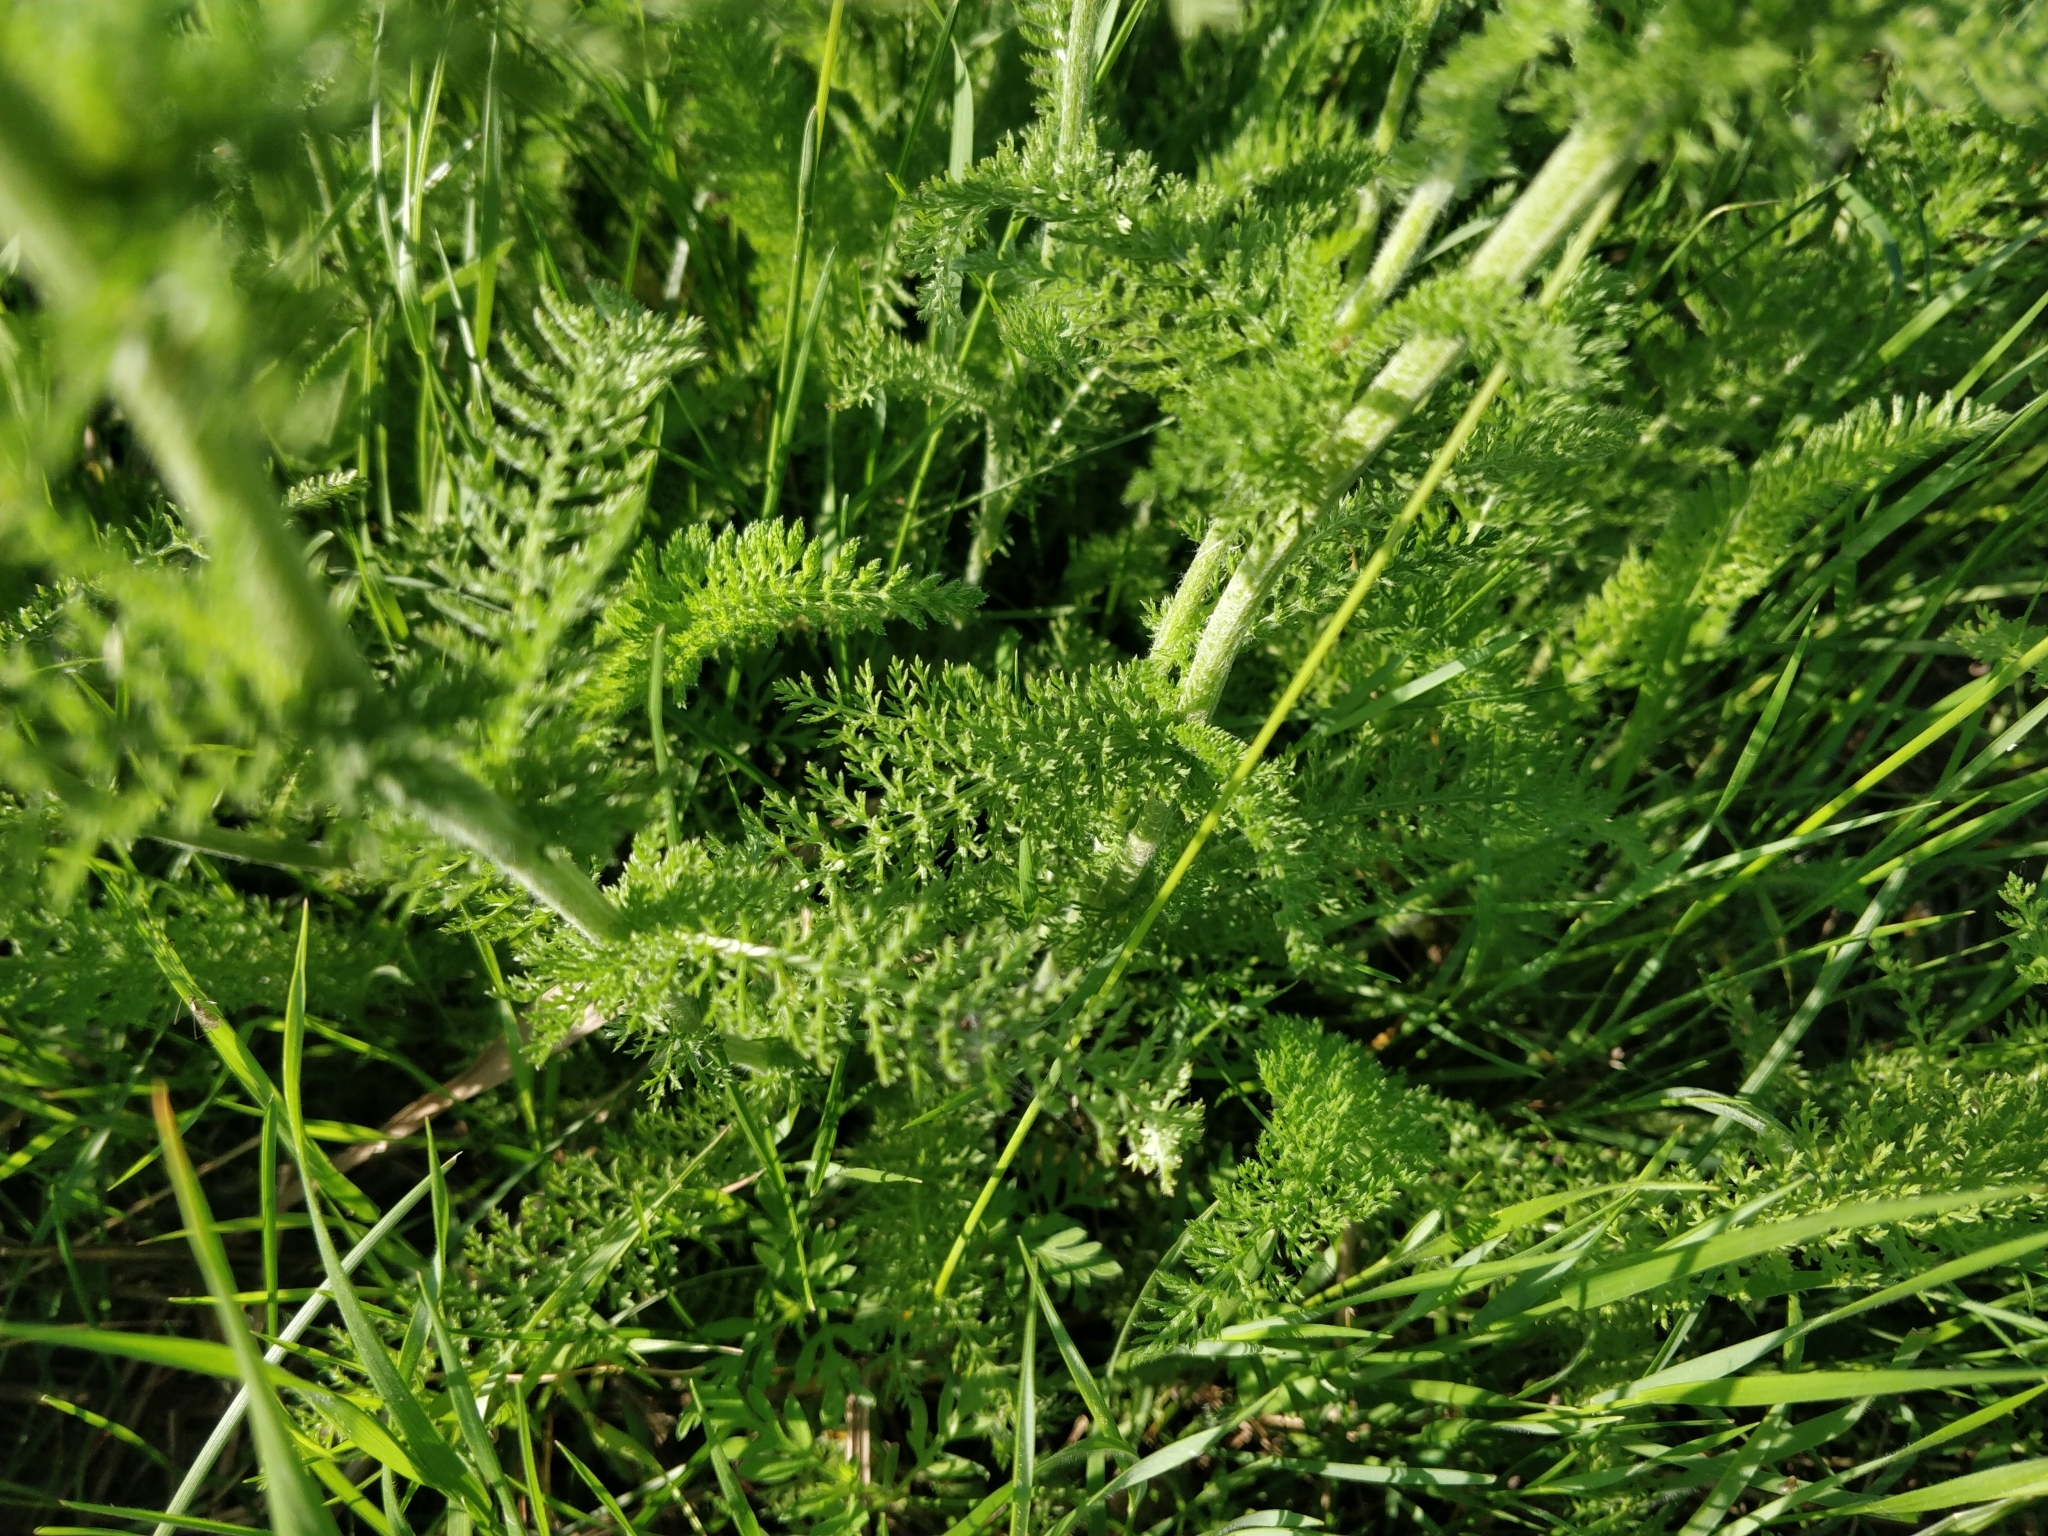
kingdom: Plantae
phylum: Tracheophyta
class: Magnoliopsida
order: Asterales
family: Asteraceae
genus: Achillea
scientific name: Achillea millefolium
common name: Yarrow
